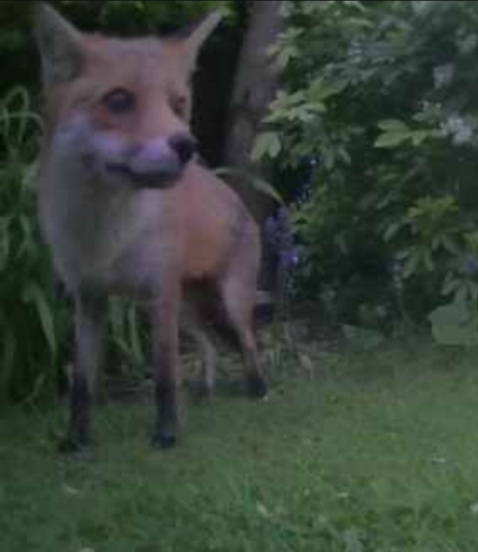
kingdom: Animalia
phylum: Chordata
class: Mammalia
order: Carnivora
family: Canidae
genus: Vulpes
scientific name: Vulpes vulpes
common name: Red fox
